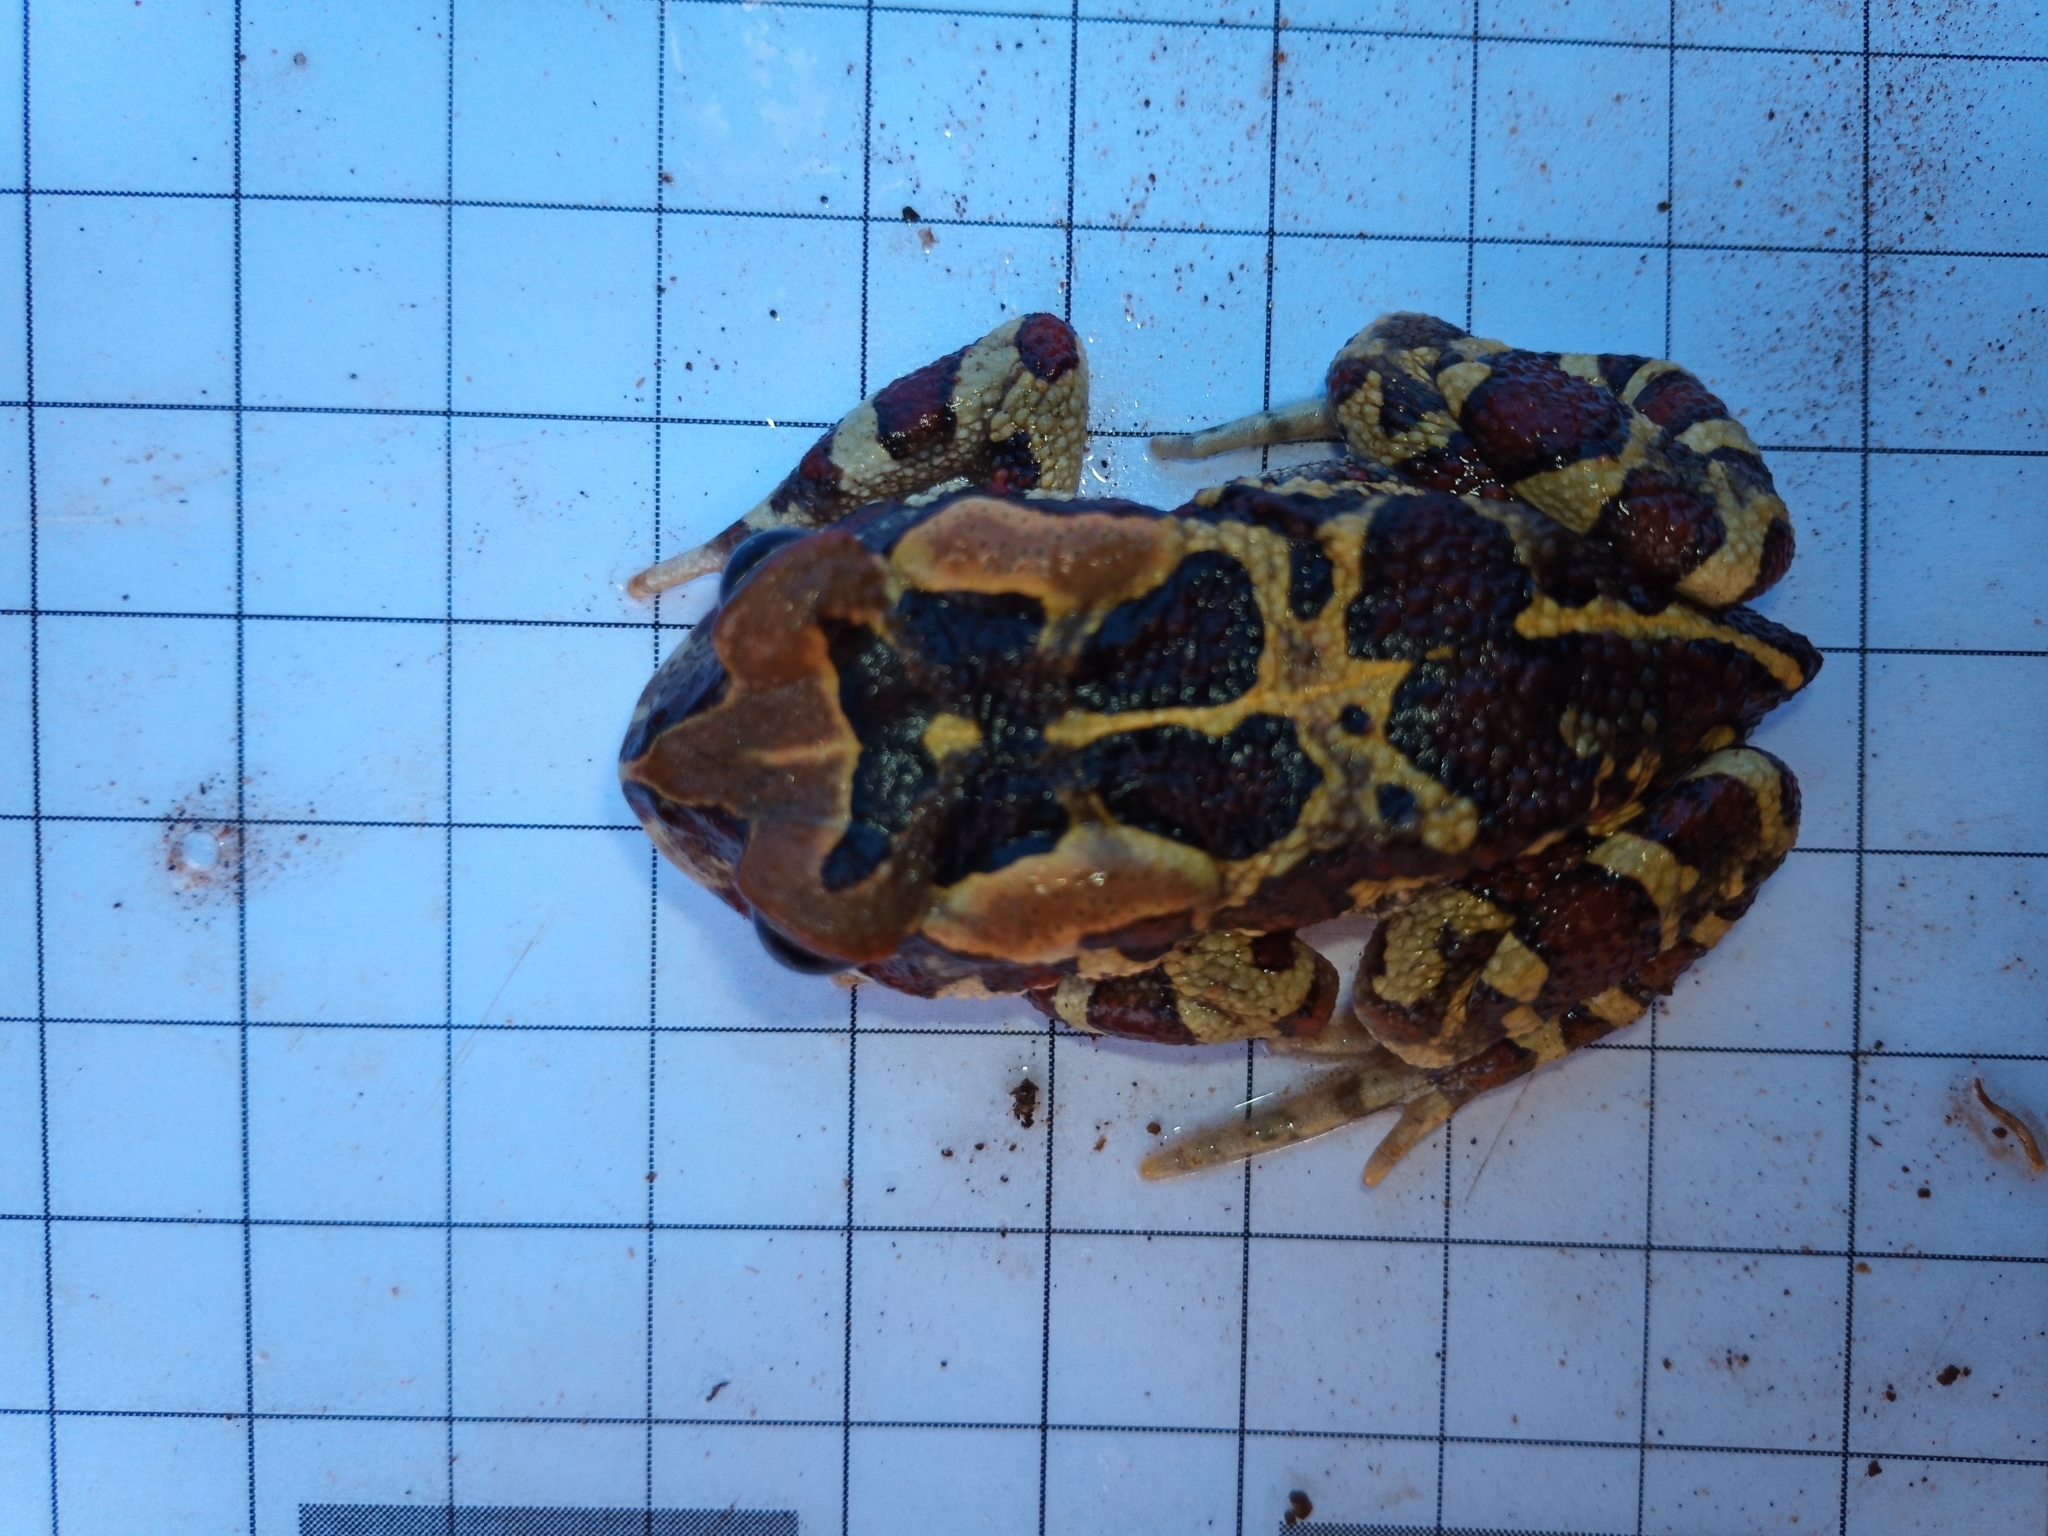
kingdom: Animalia
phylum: Chordata
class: Amphibia
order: Anura
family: Bufonidae
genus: Sclerophrys
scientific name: Sclerophrys pantherina
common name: Panther toad
